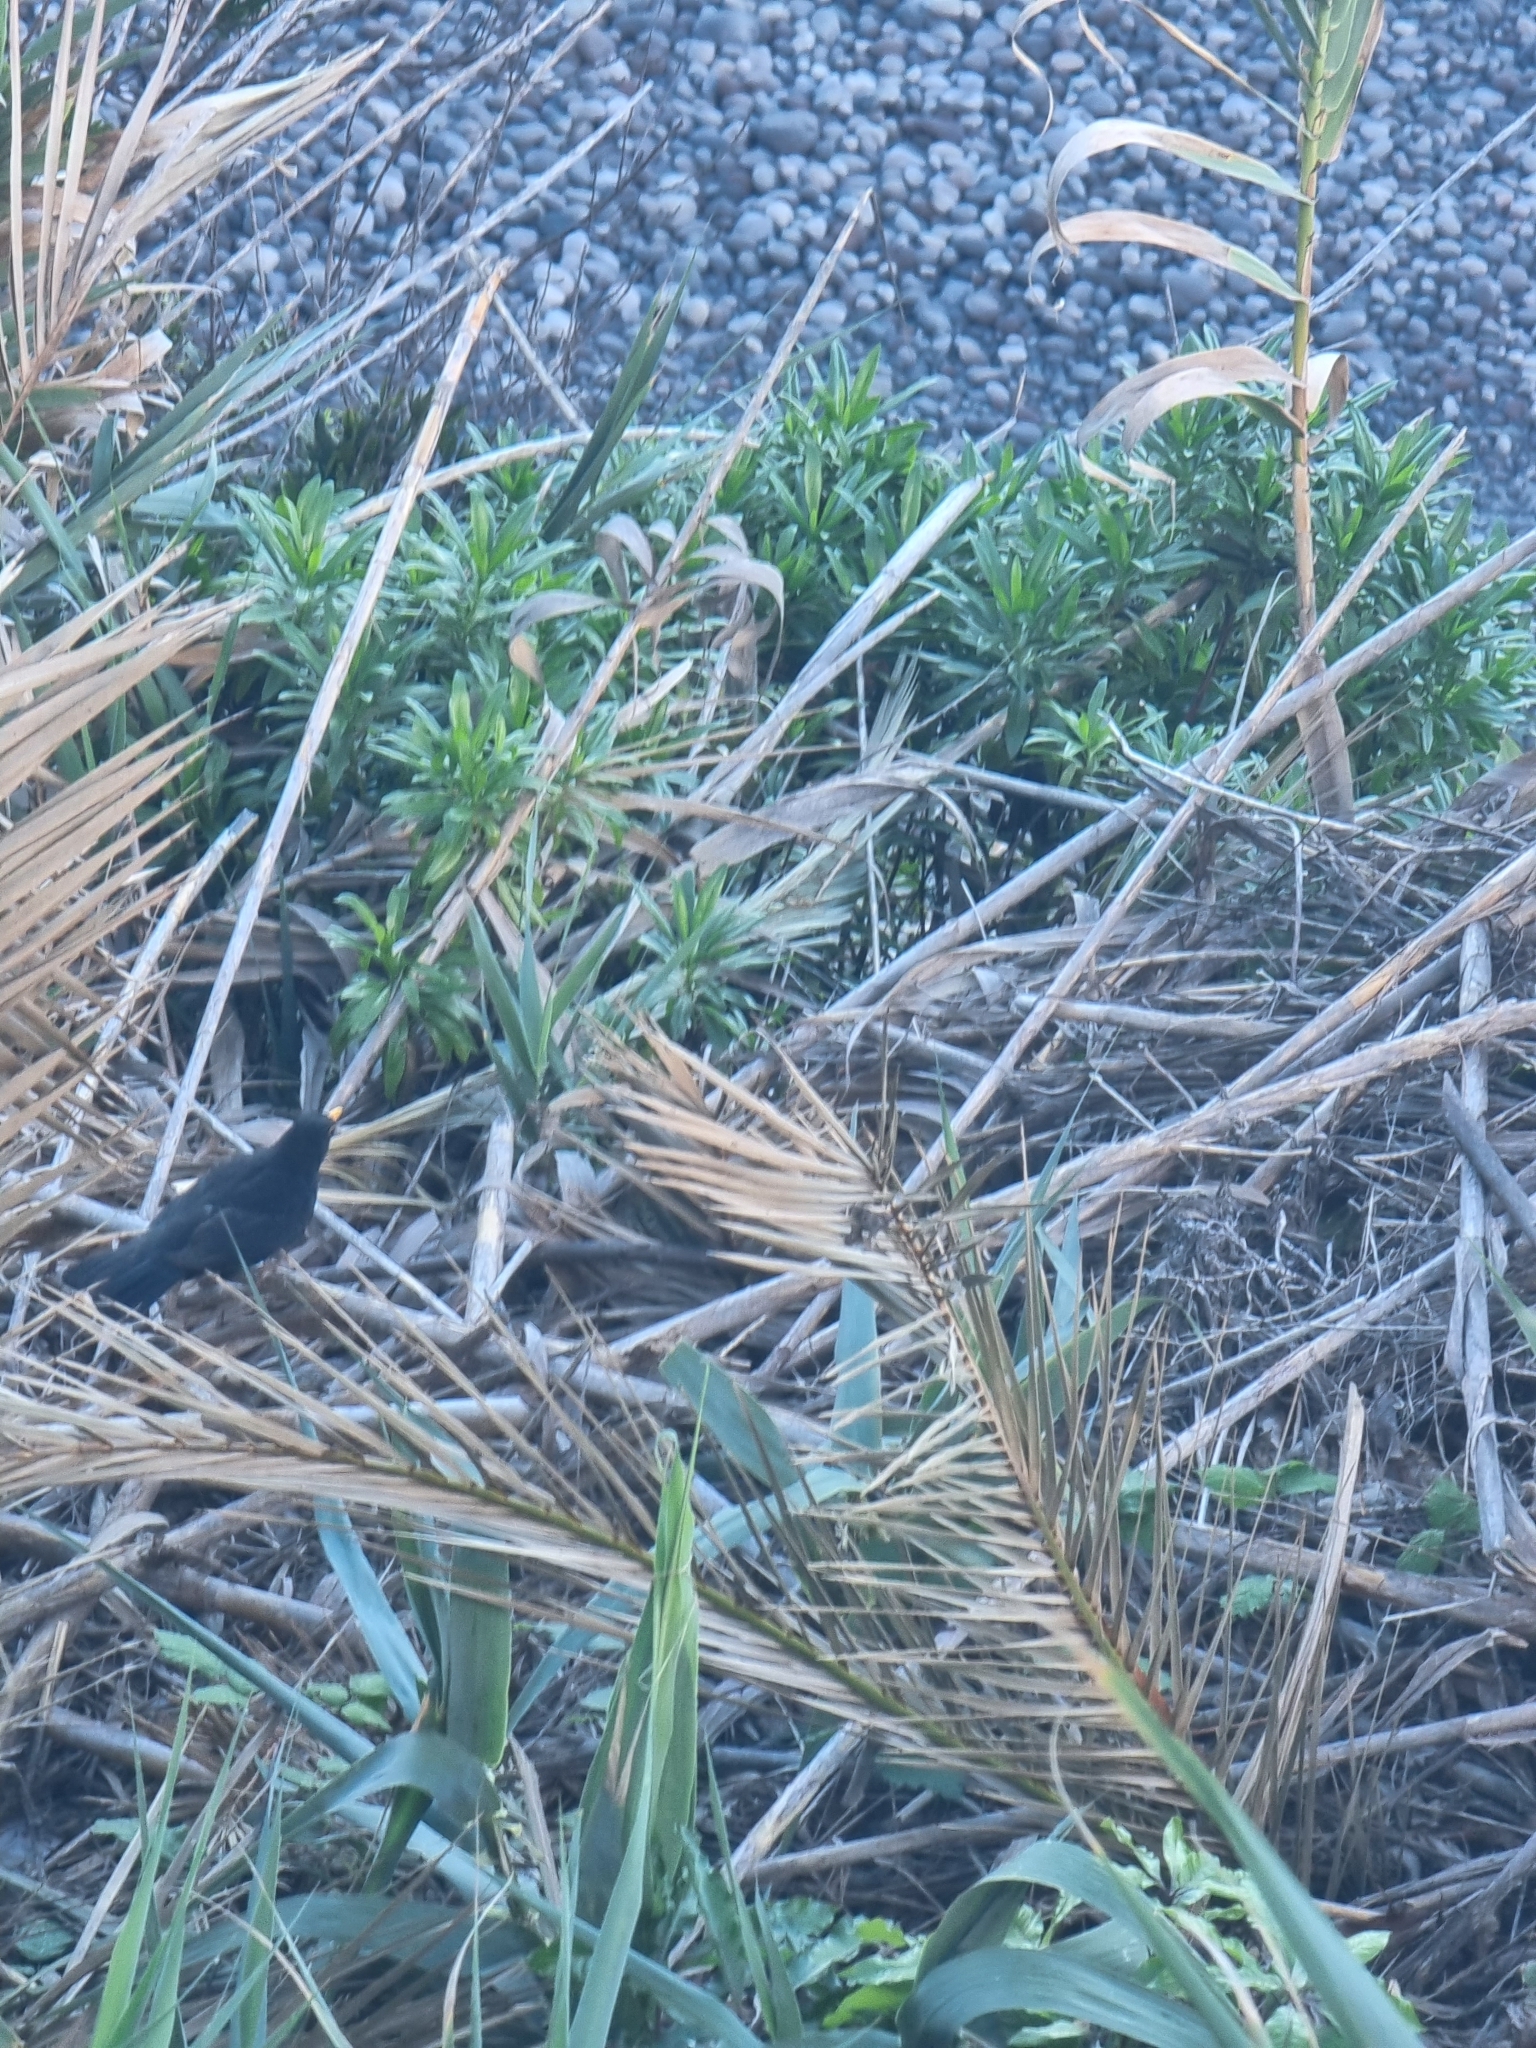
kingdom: Plantae
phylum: Tracheophyta
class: Magnoliopsida
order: Lamiales
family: Plantaginaceae
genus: Globularia
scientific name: Globularia salicina
